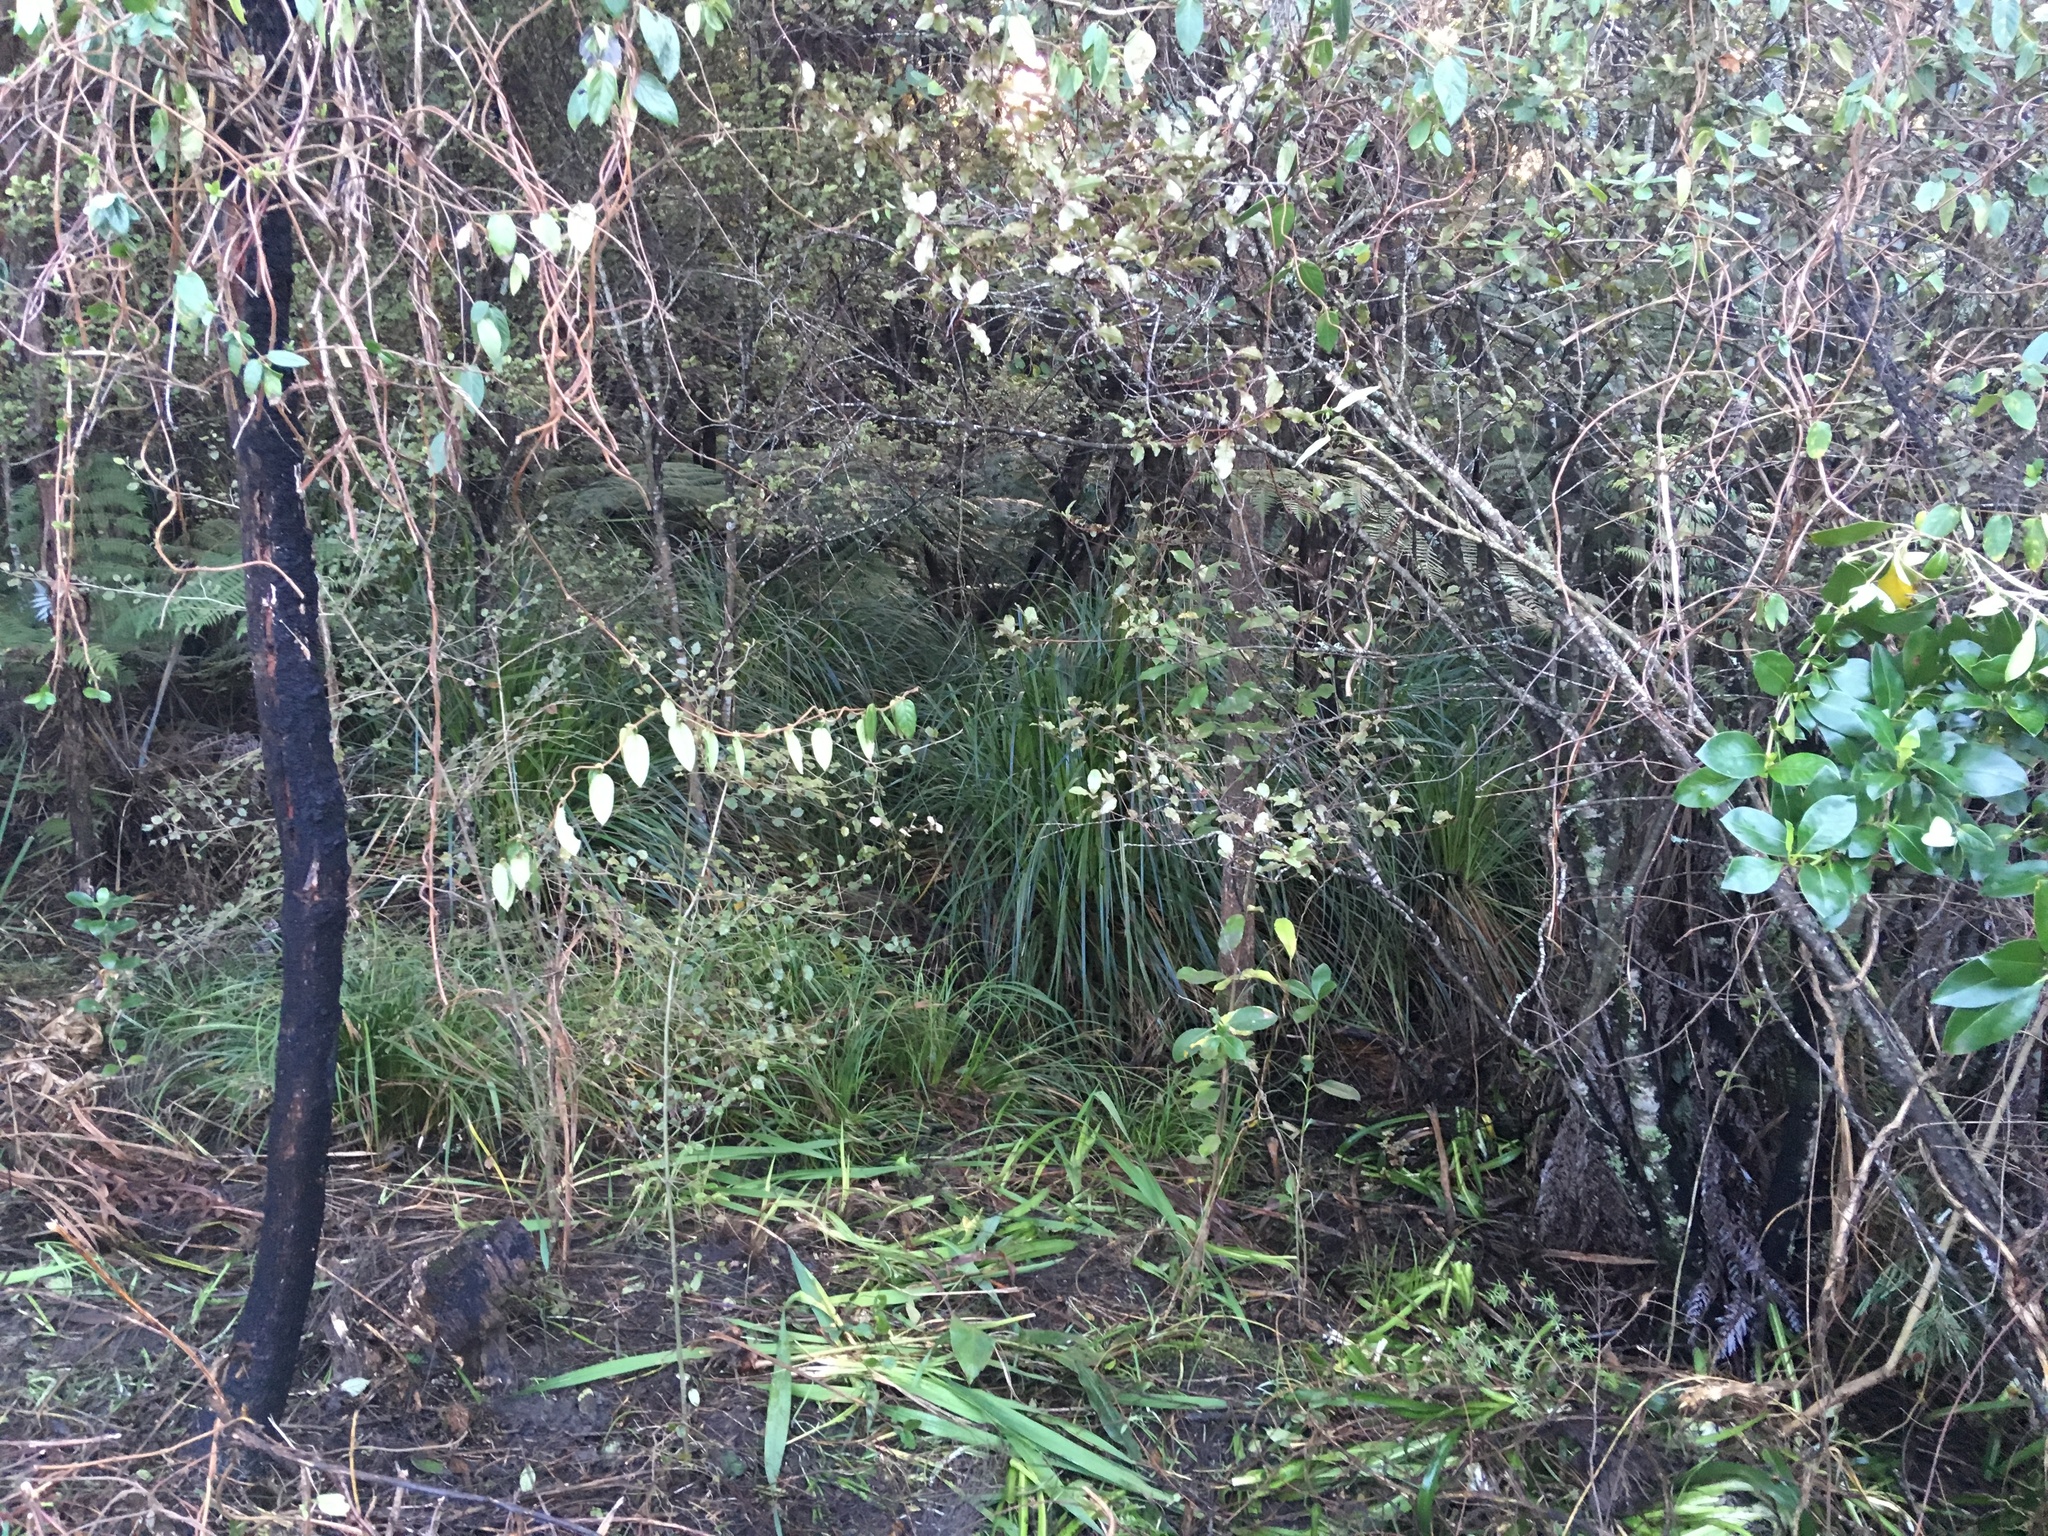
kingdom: Plantae
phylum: Tracheophyta
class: Magnoliopsida
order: Dipsacales
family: Caprifoliaceae
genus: Lonicera
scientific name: Lonicera japonica
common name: Japanese honeysuckle
